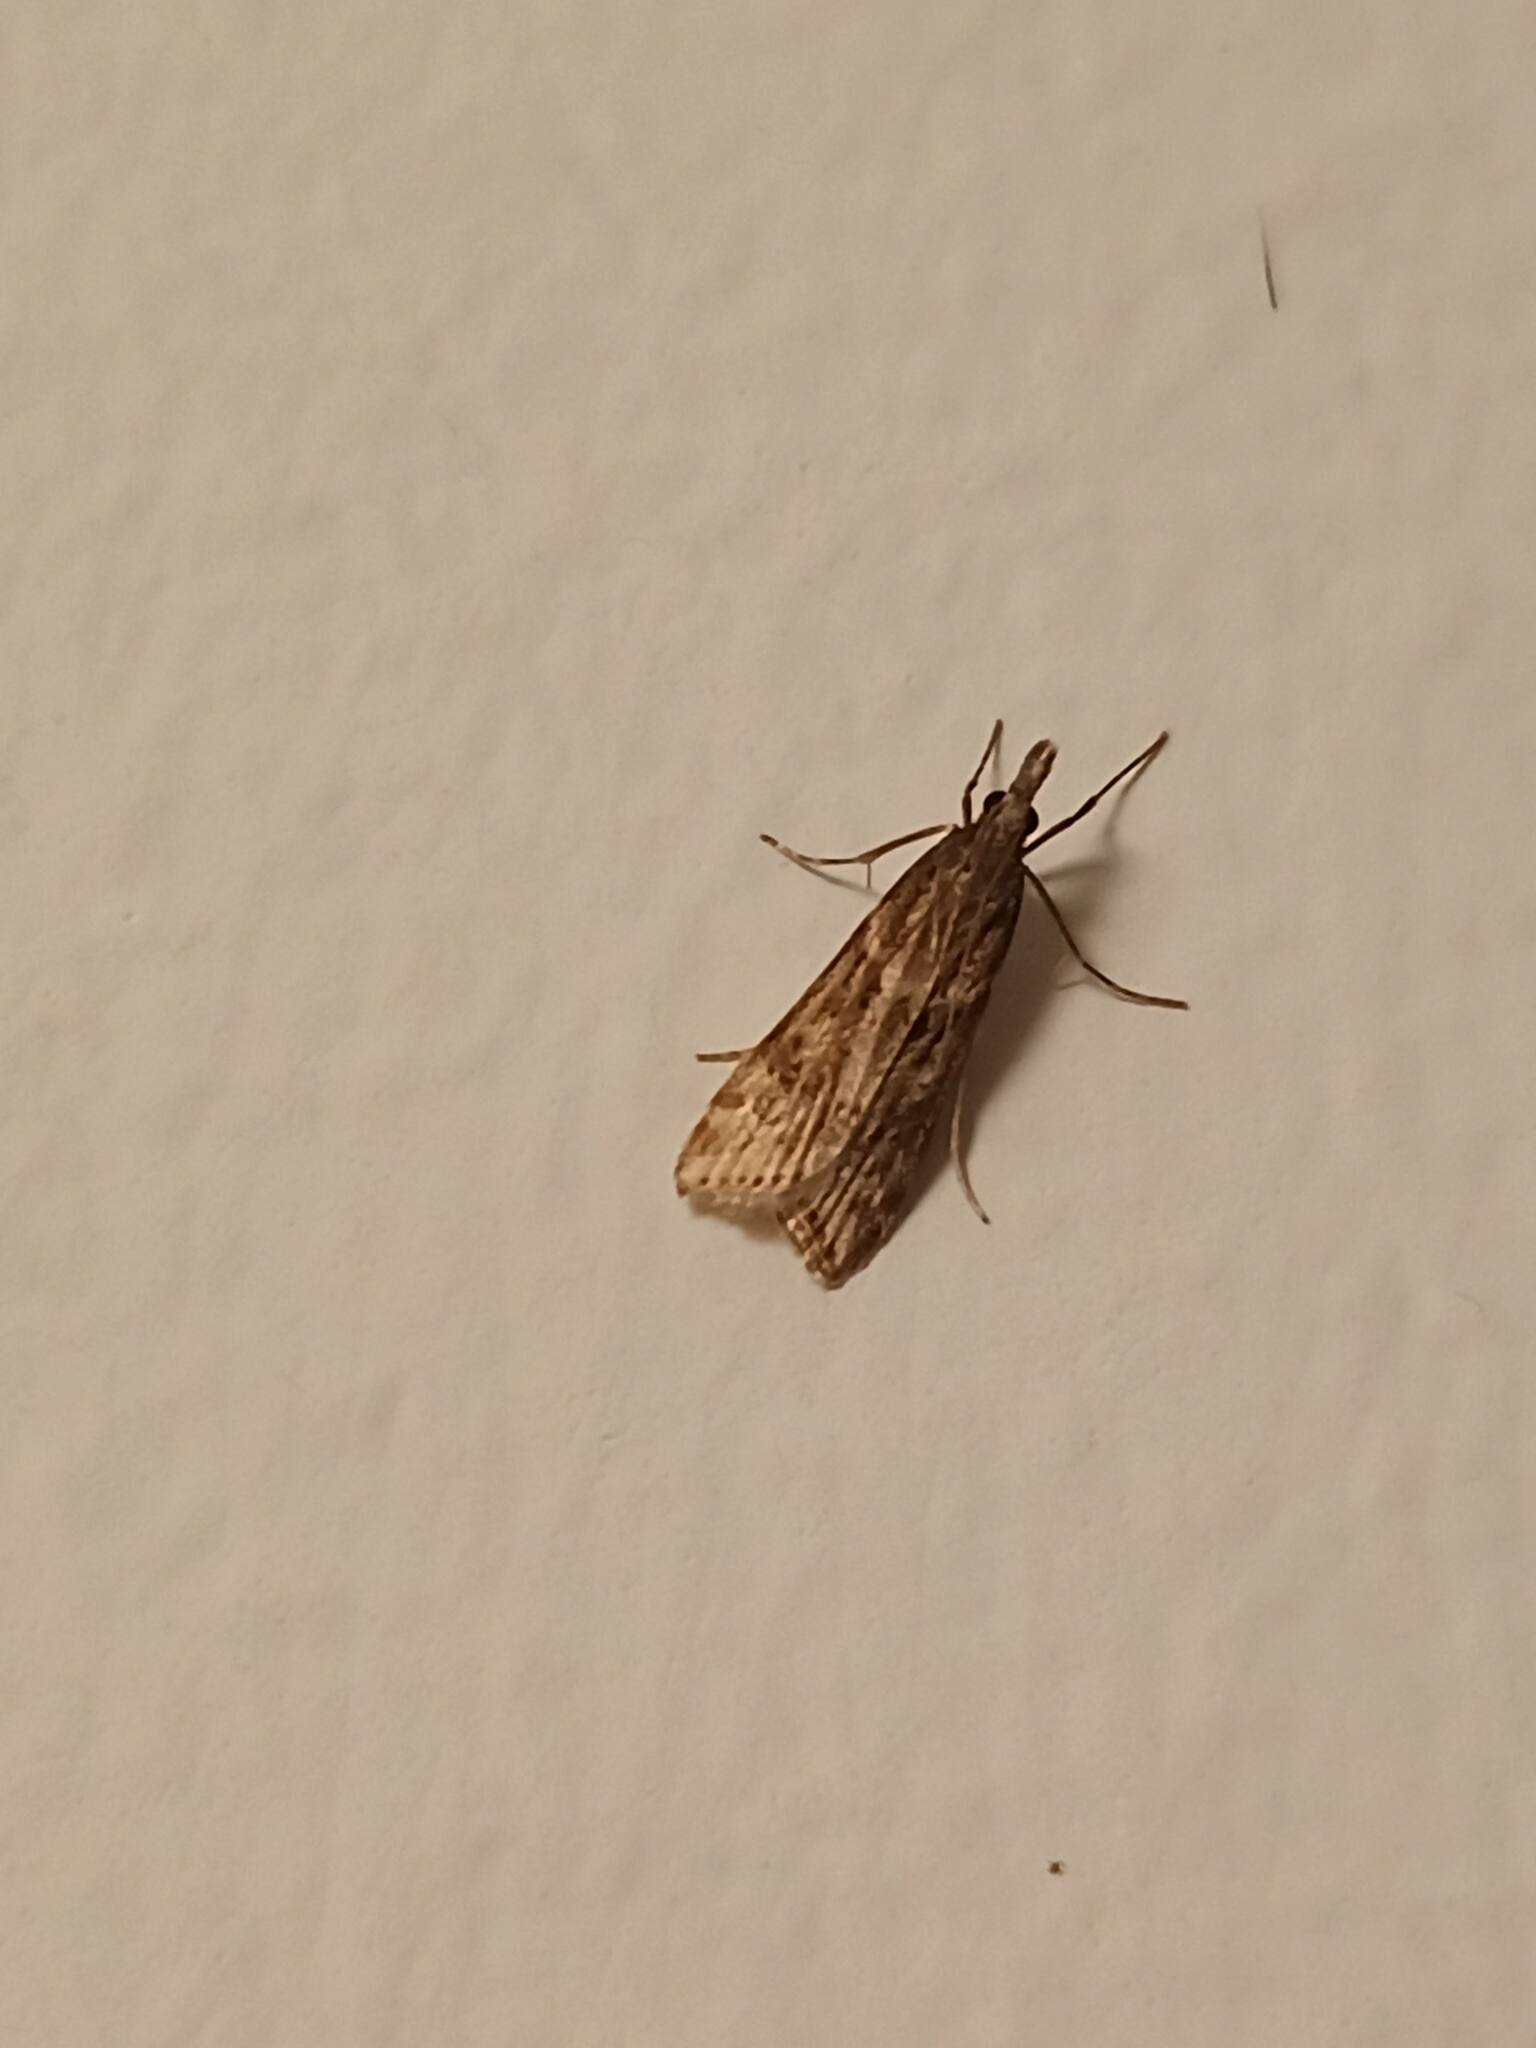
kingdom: Animalia
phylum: Arthropoda
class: Insecta
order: Lepidoptera
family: Crambidae
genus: Eudonia
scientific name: Eudonia angustea
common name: Narrow-winged grey
